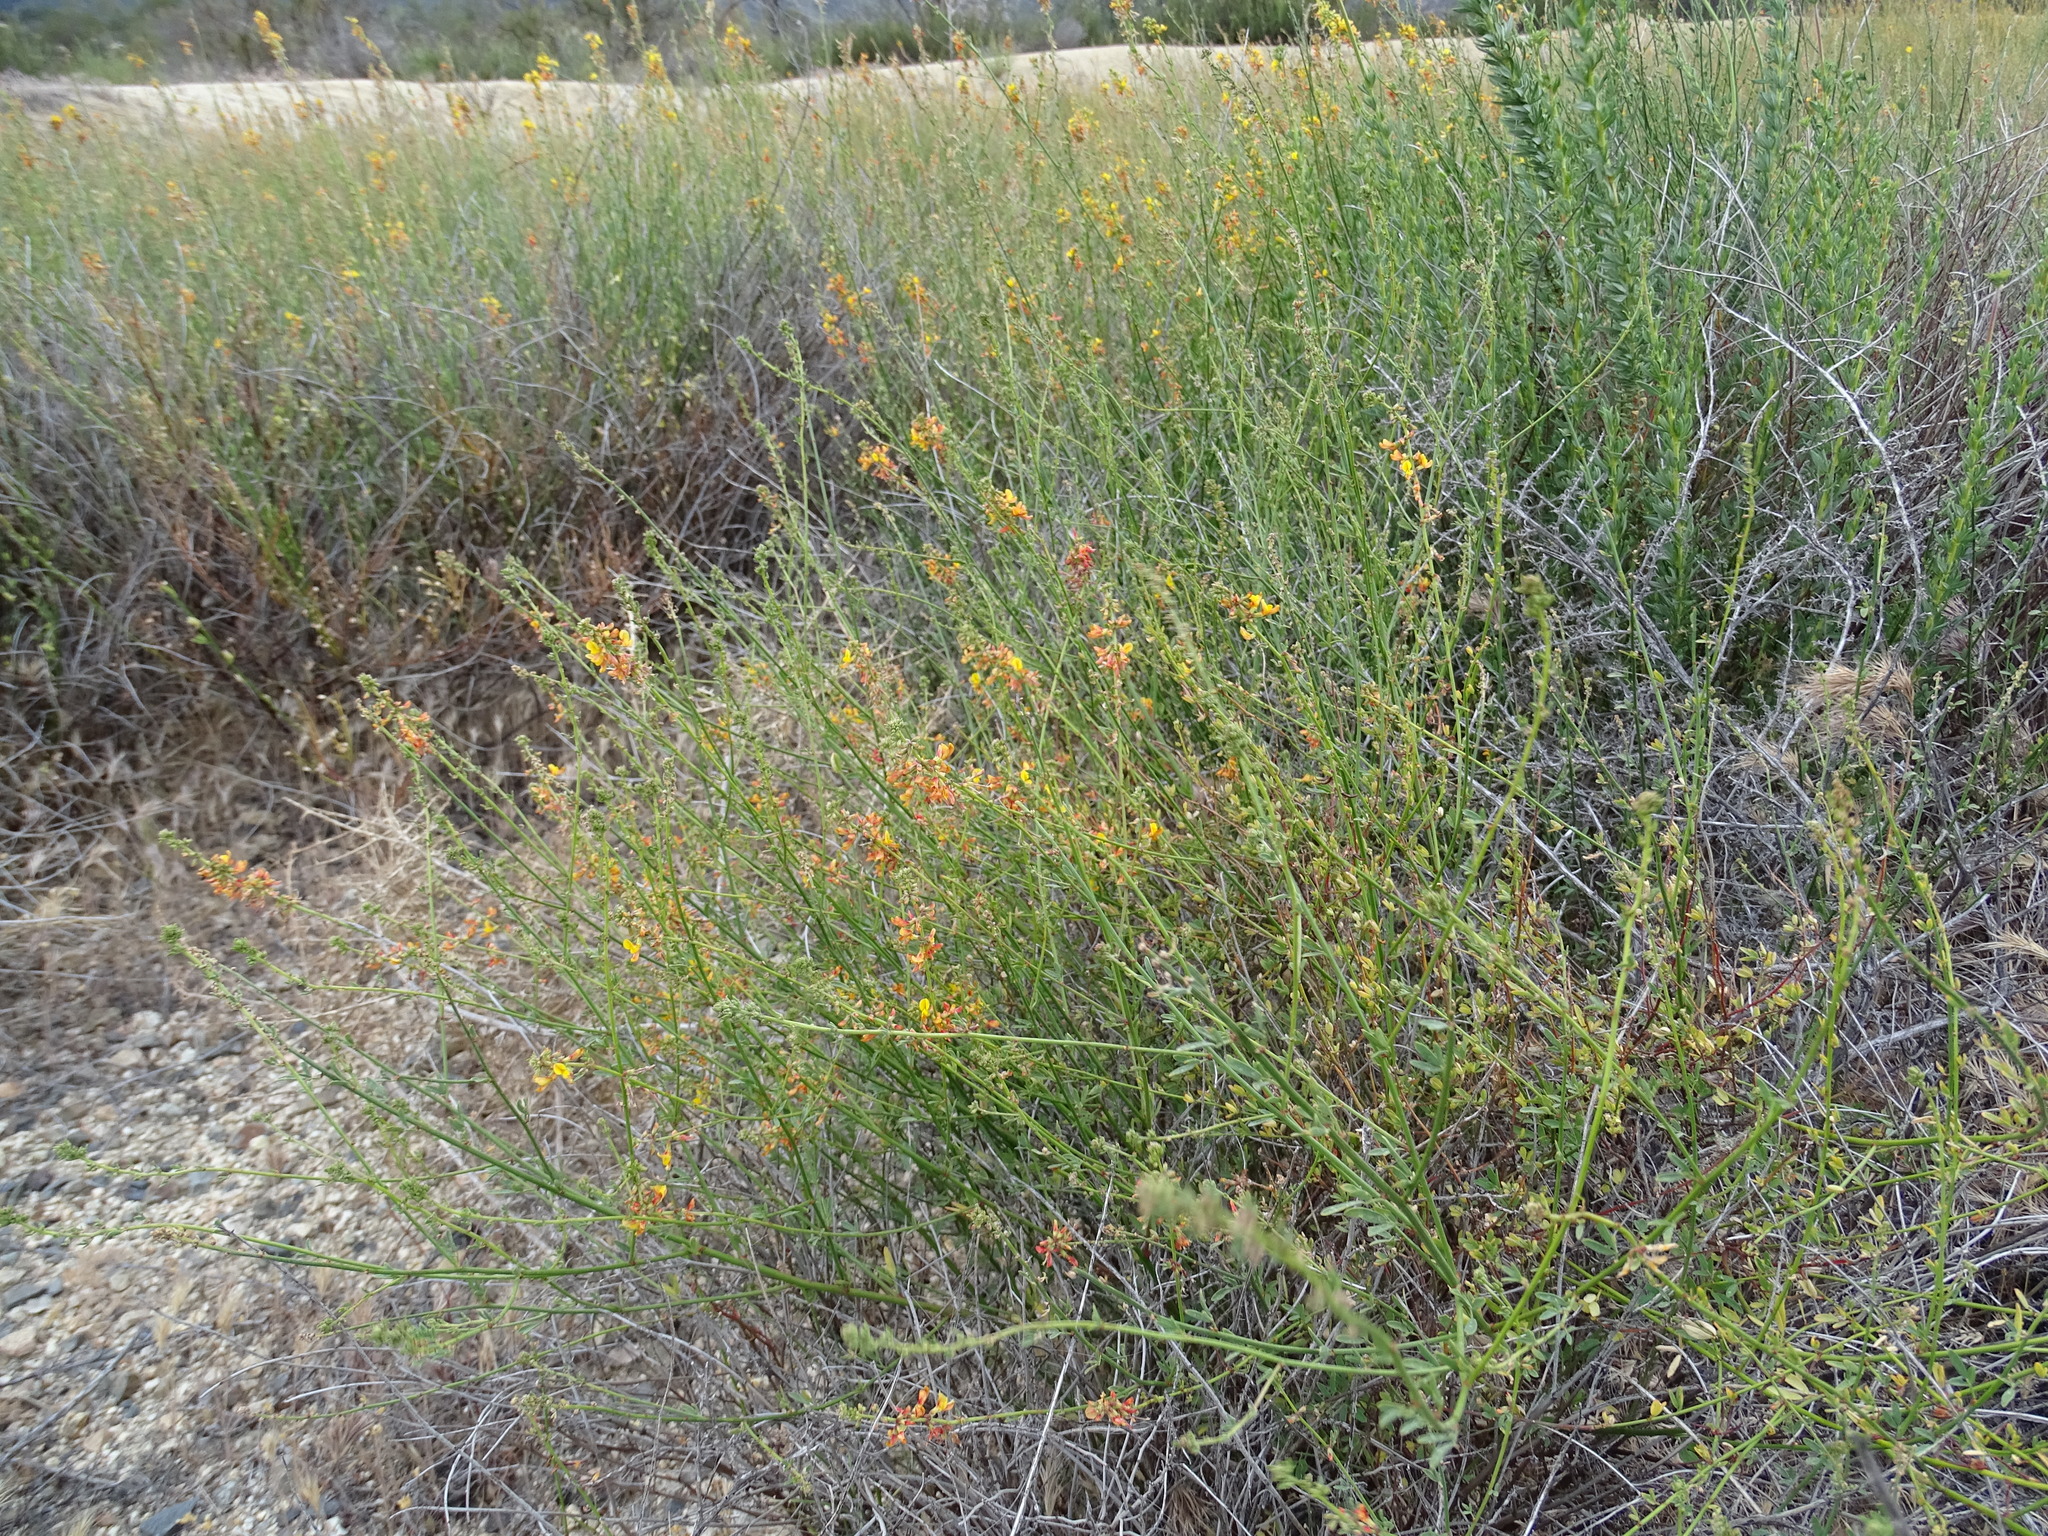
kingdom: Plantae
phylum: Tracheophyta
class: Magnoliopsida
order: Fabales
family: Fabaceae
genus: Acmispon
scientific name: Acmispon glaber
